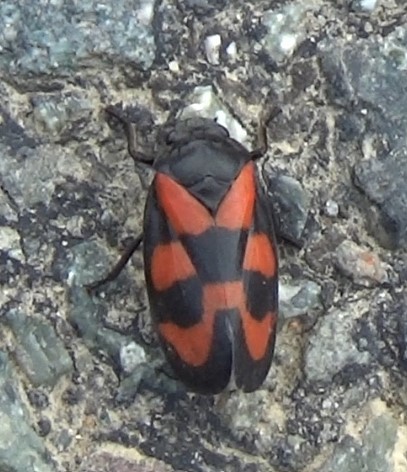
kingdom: Animalia
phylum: Arthropoda
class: Insecta
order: Hemiptera
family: Cercopidae
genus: Cercopis
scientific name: Cercopis vulnerata
